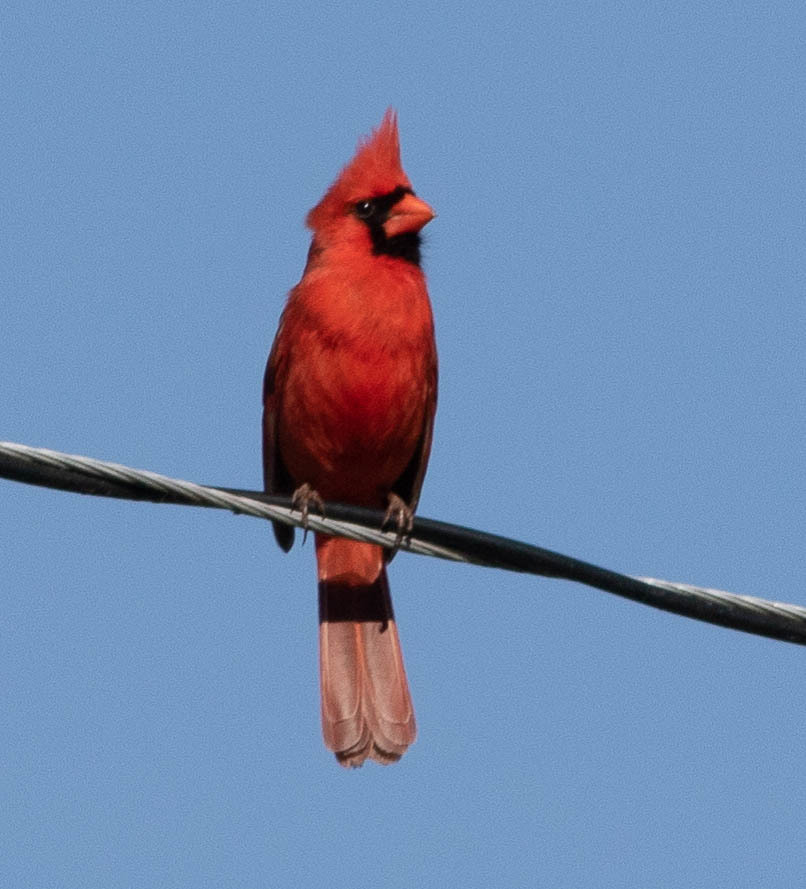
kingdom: Animalia
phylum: Chordata
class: Aves
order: Passeriformes
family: Cardinalidae
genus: Cardinalis
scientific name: Cardinalis cardinalis
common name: Northern cardinal
